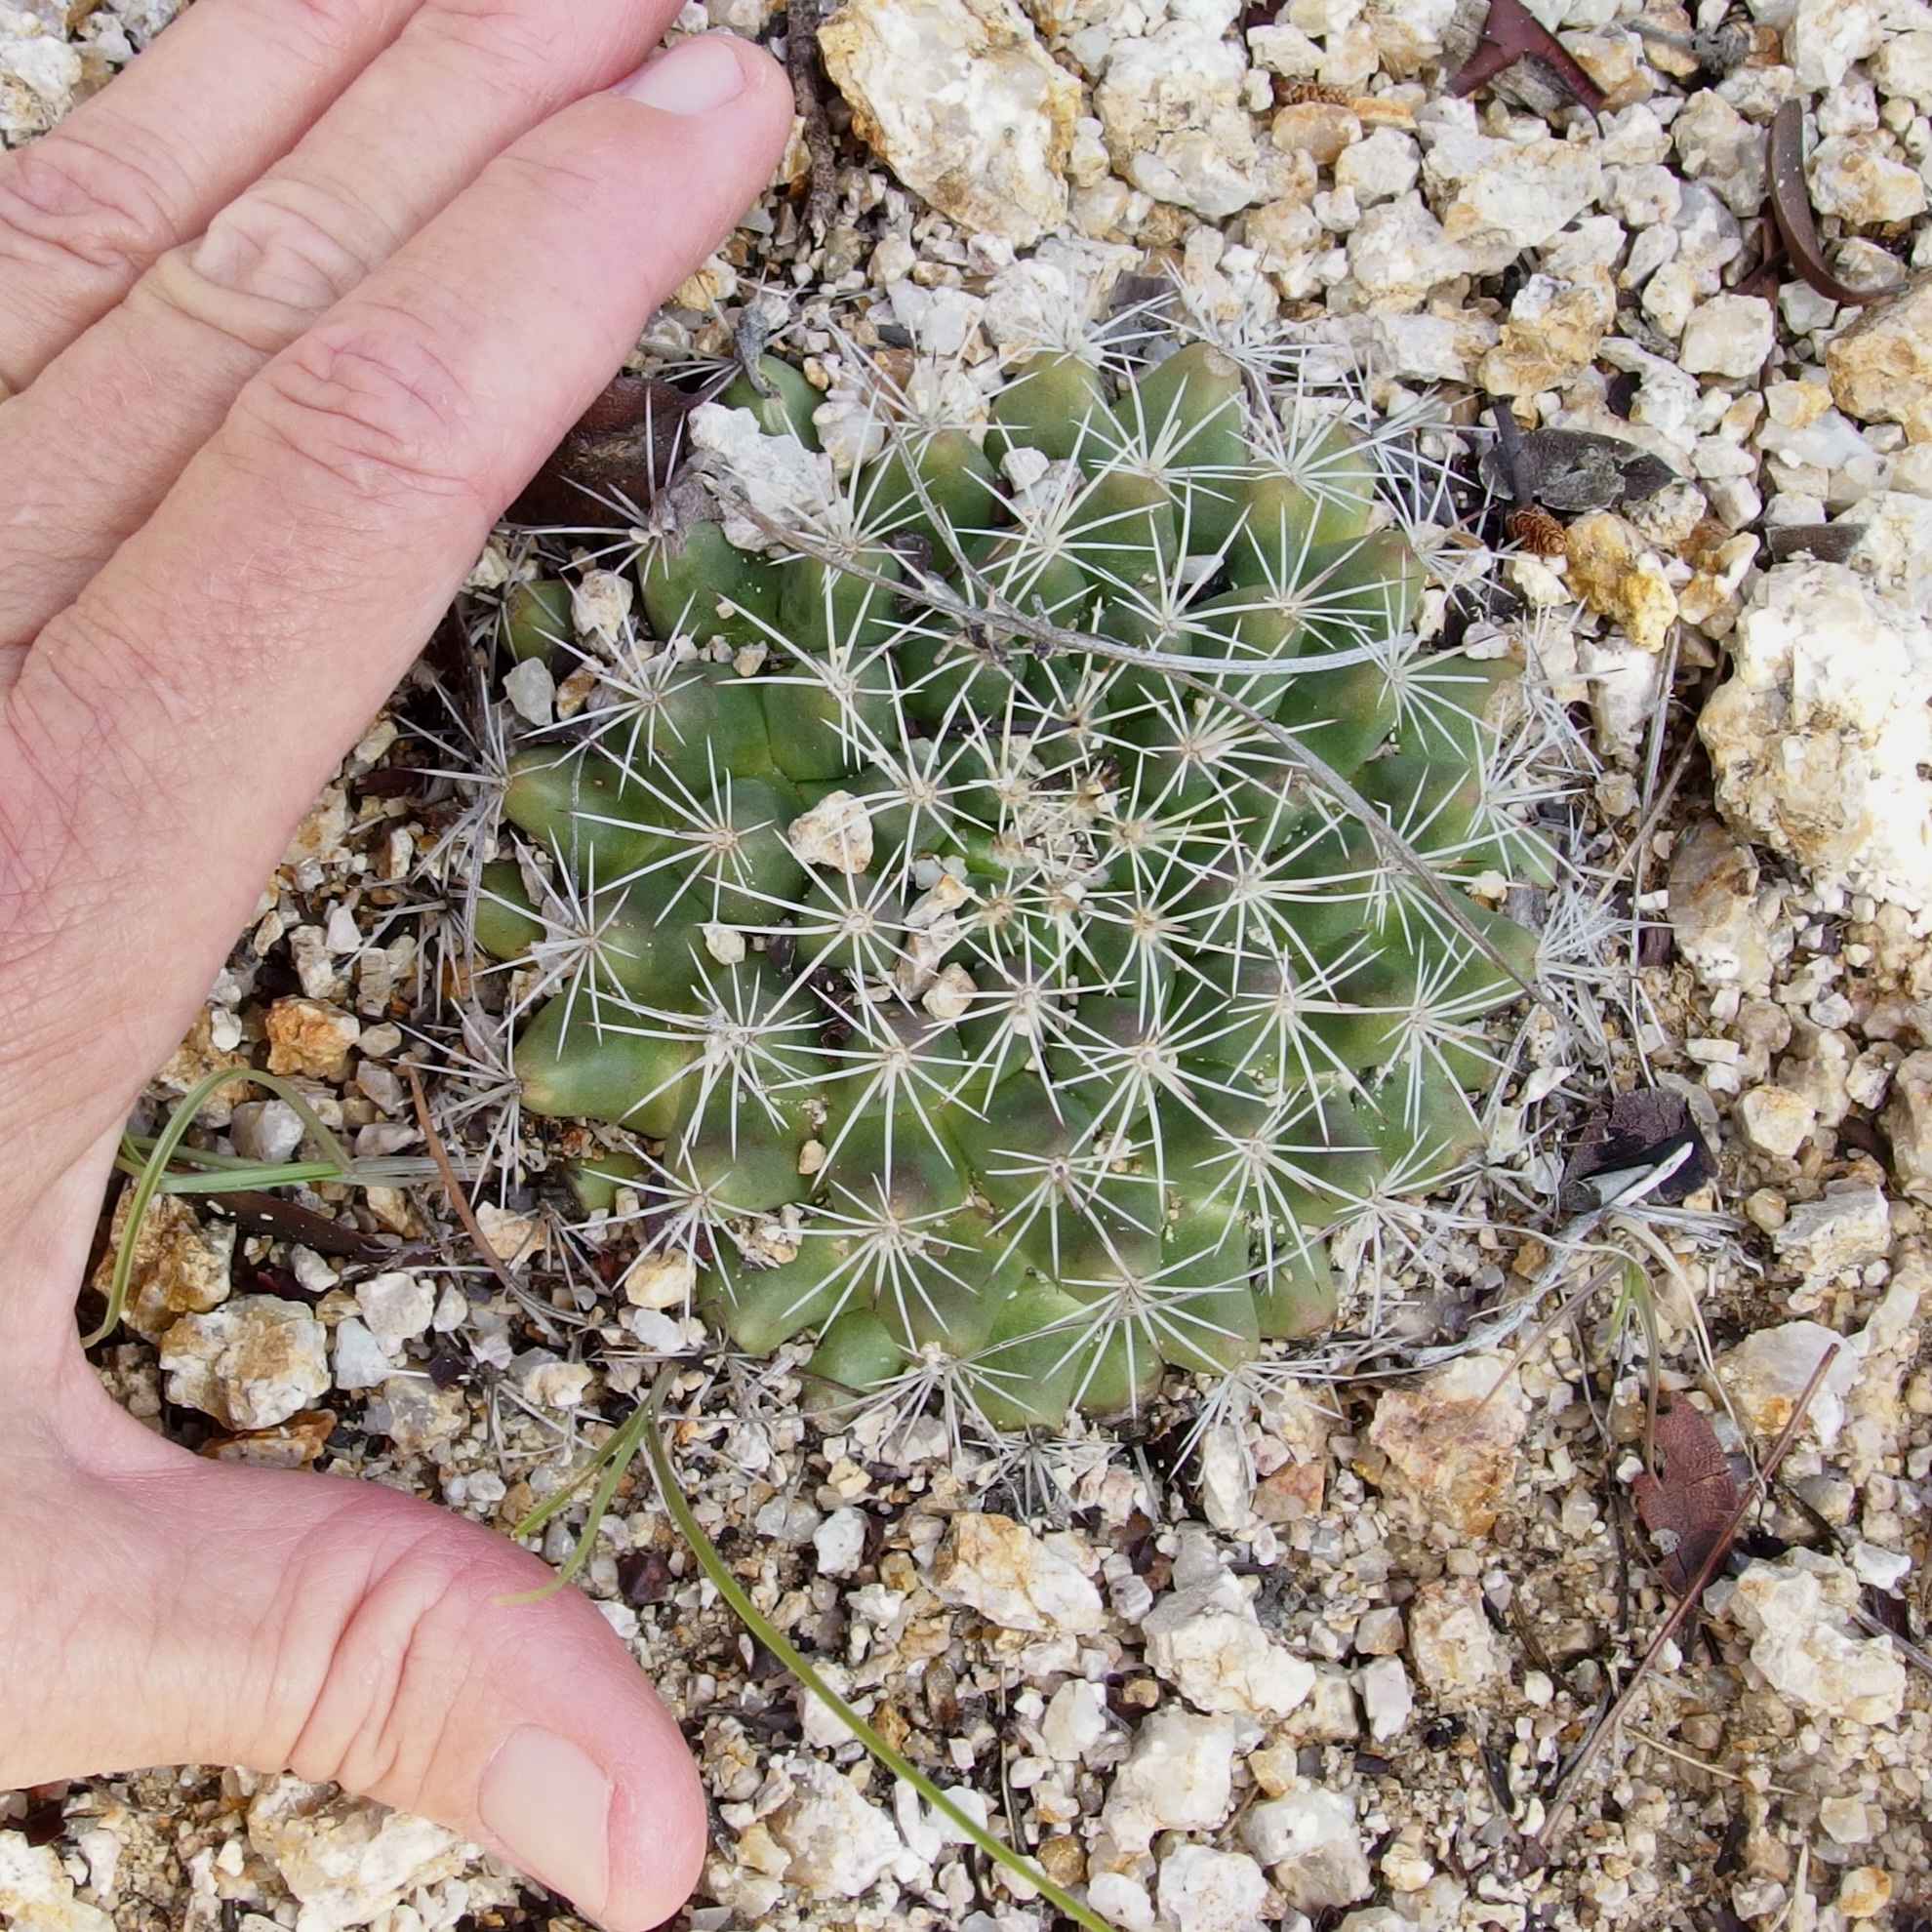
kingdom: Plantae
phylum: Tracheophyta
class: Magnoliopsida
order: Caryophyllales
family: Cactaceae
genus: Mammillaria
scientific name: Mammillaria heyderi
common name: Little nipple cactus
